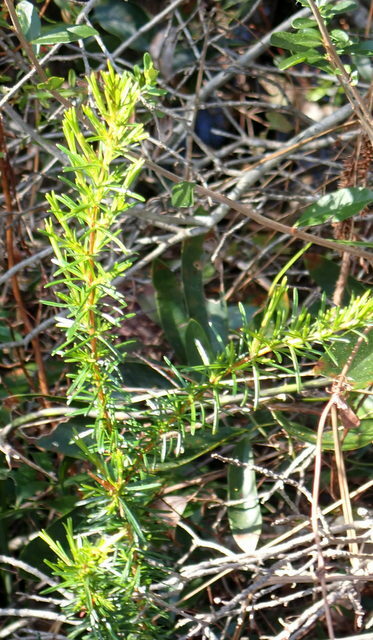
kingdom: Plantae
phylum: Tracheophyta
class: Magnoliopsida
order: Malpighiales
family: Hypericaceae
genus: Hypericum
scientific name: Hypericum microsepalum
